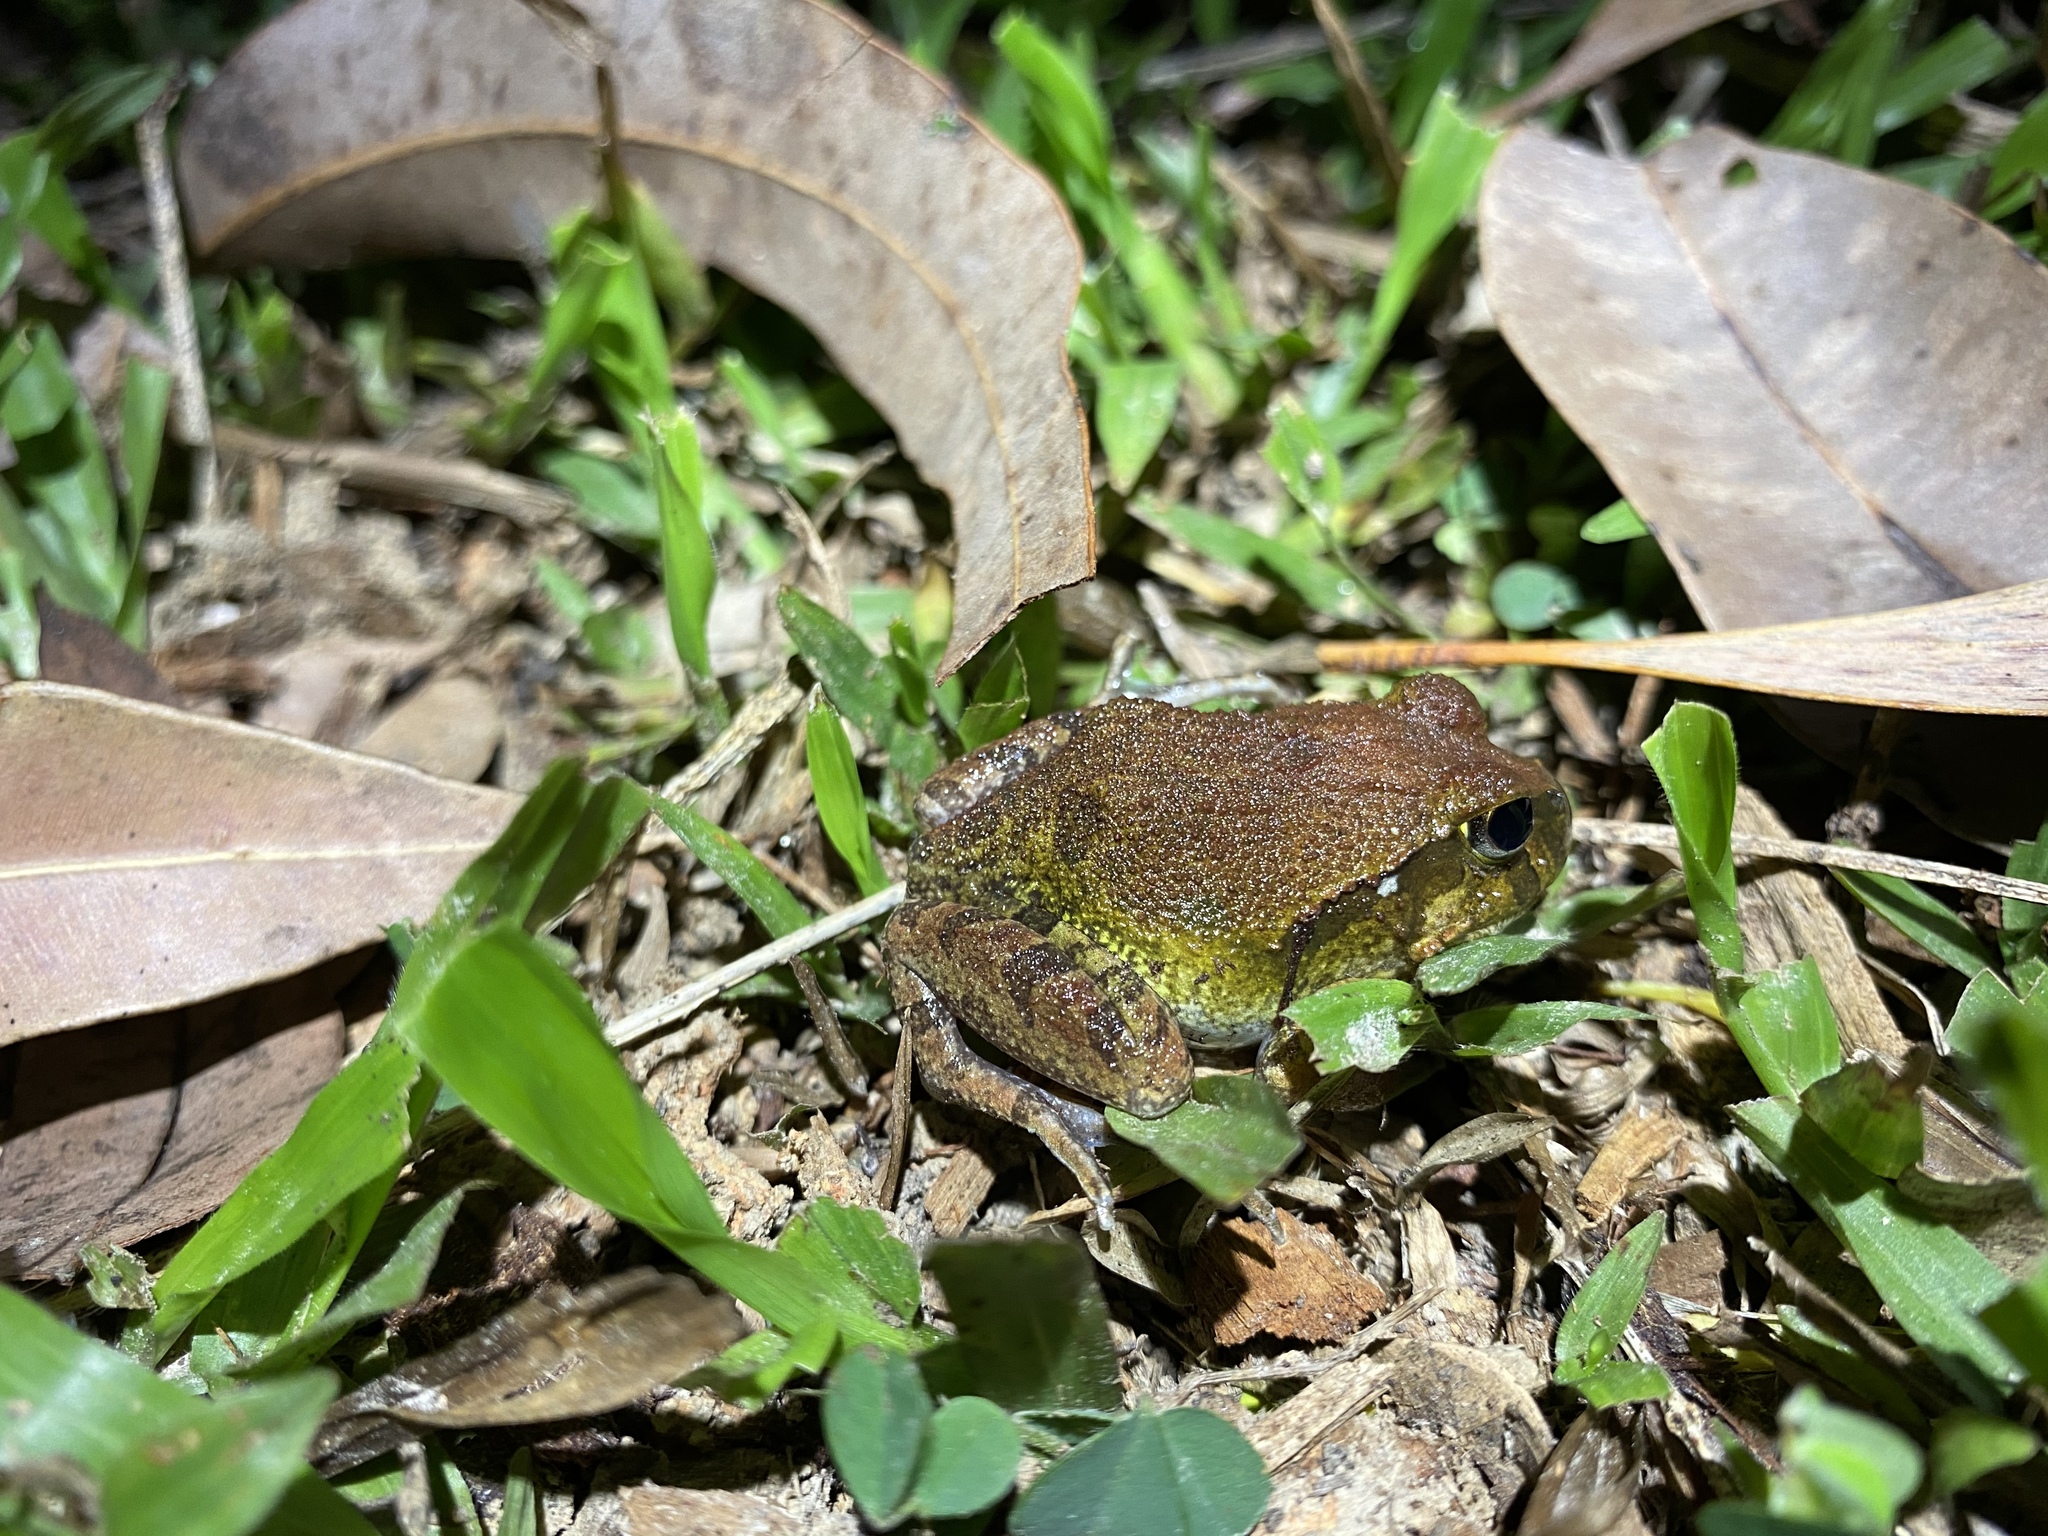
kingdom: Animalia
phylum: Chordata
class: Amphibia
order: Anura
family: Limnodynastidae
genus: Platyplectrum
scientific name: Platyplectrum ornatum
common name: Ornate burrowing frog
